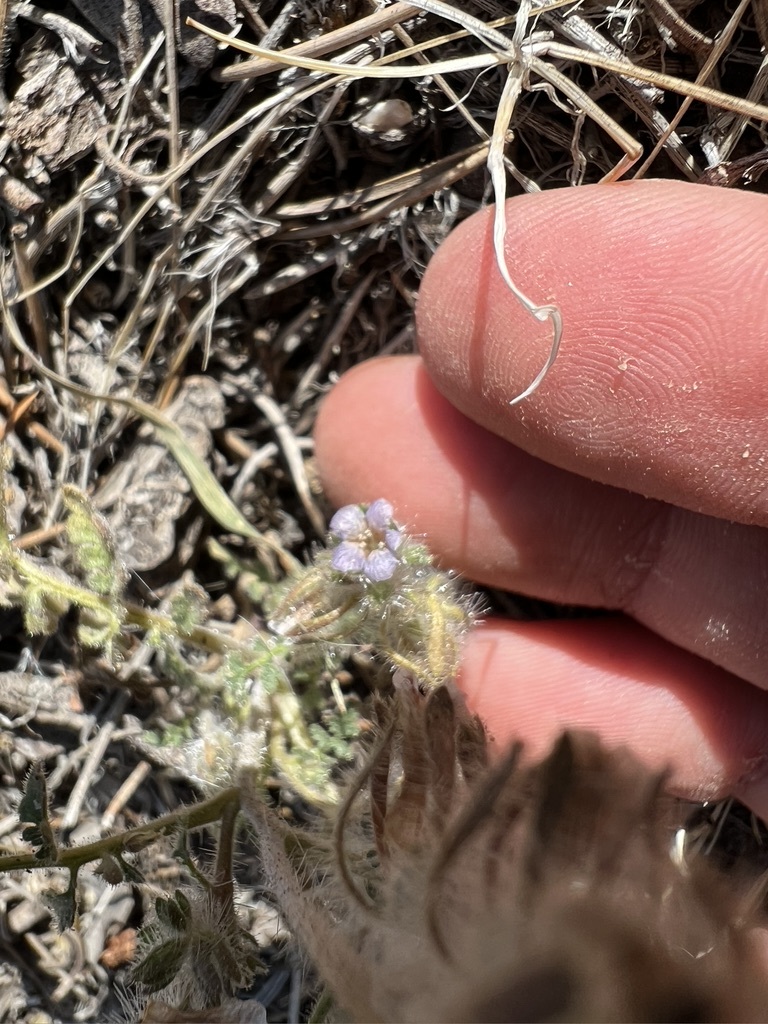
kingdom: Plantae
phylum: Tracheophyta
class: Magnoliopsida
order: Boraginales
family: Hydrophyllaceae
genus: Phacelia
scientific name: Phacelia cryptantha
